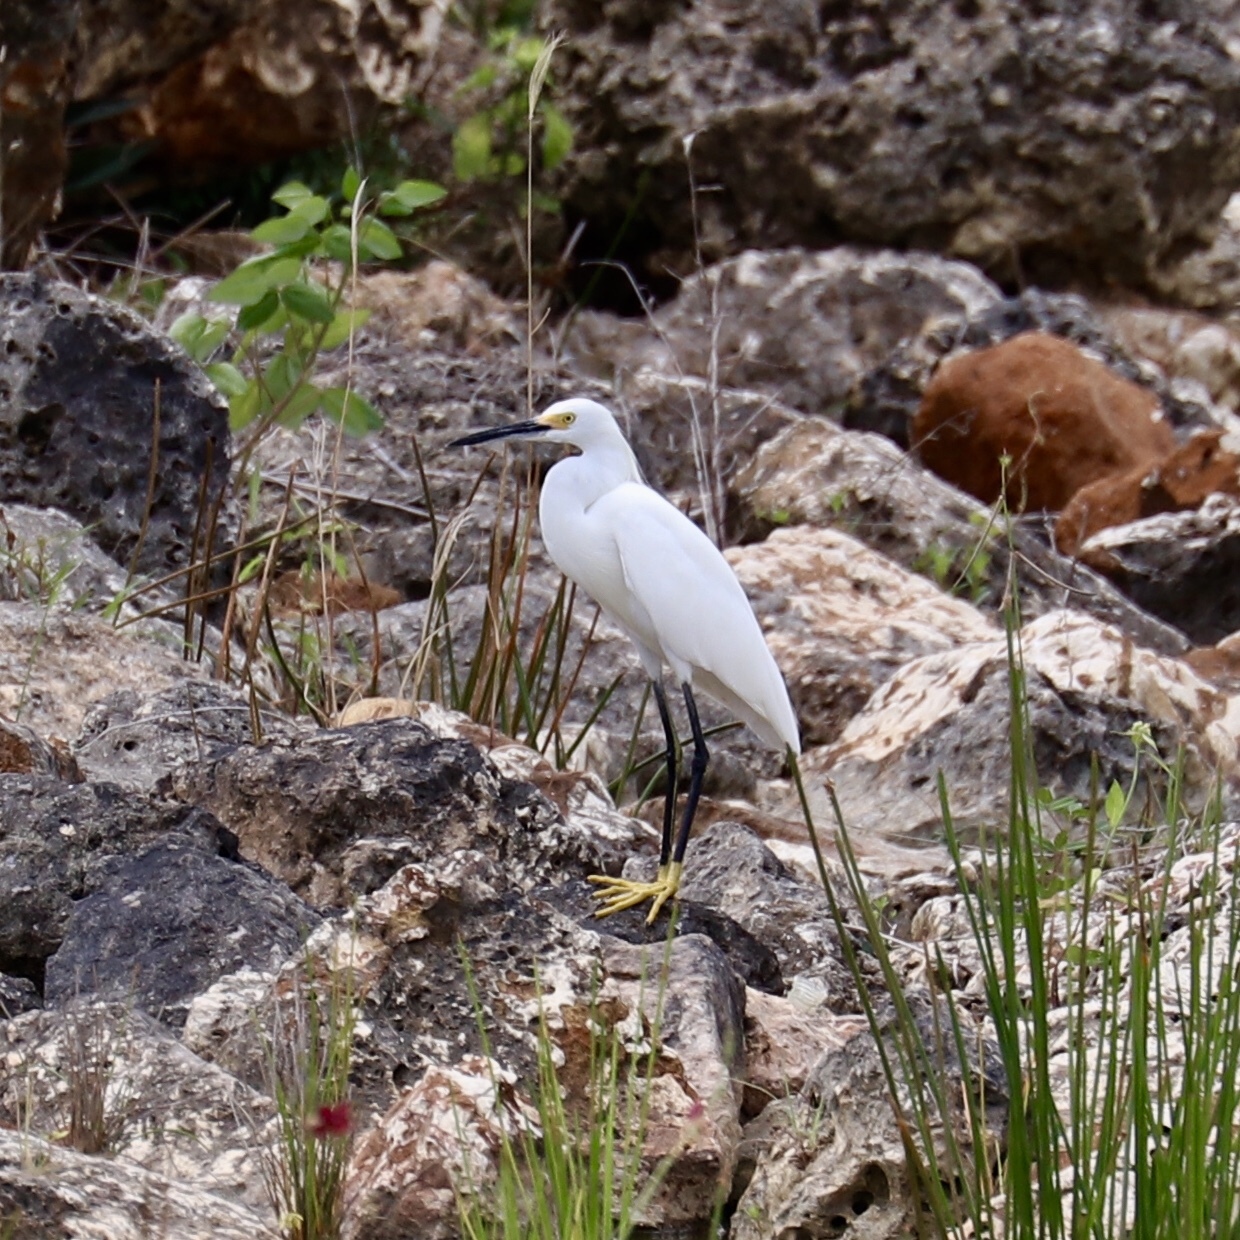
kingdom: Animalia
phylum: Chordata
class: Aves
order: Pelecaniformes
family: Ardeidae
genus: Egretta
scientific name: Egretta thula
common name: Snowy egret
